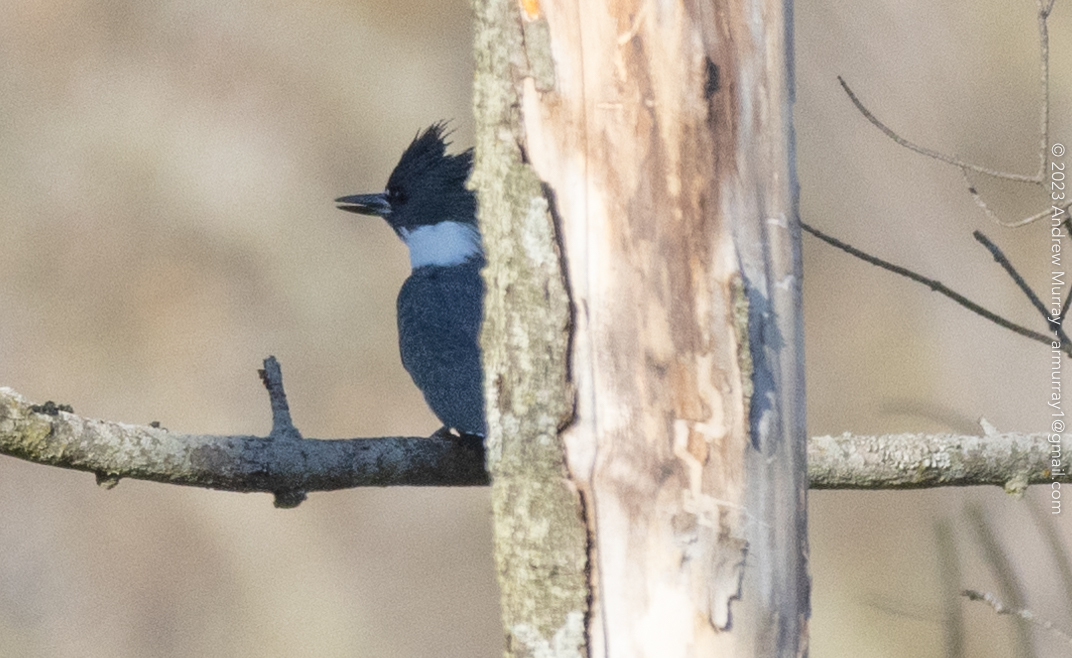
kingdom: Animalia
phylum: Chordata
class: Aves
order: Coraciiformes
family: Alcedinidae
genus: Megaceryle
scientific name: Megaceryle alcyon
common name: Belted kingfisher
